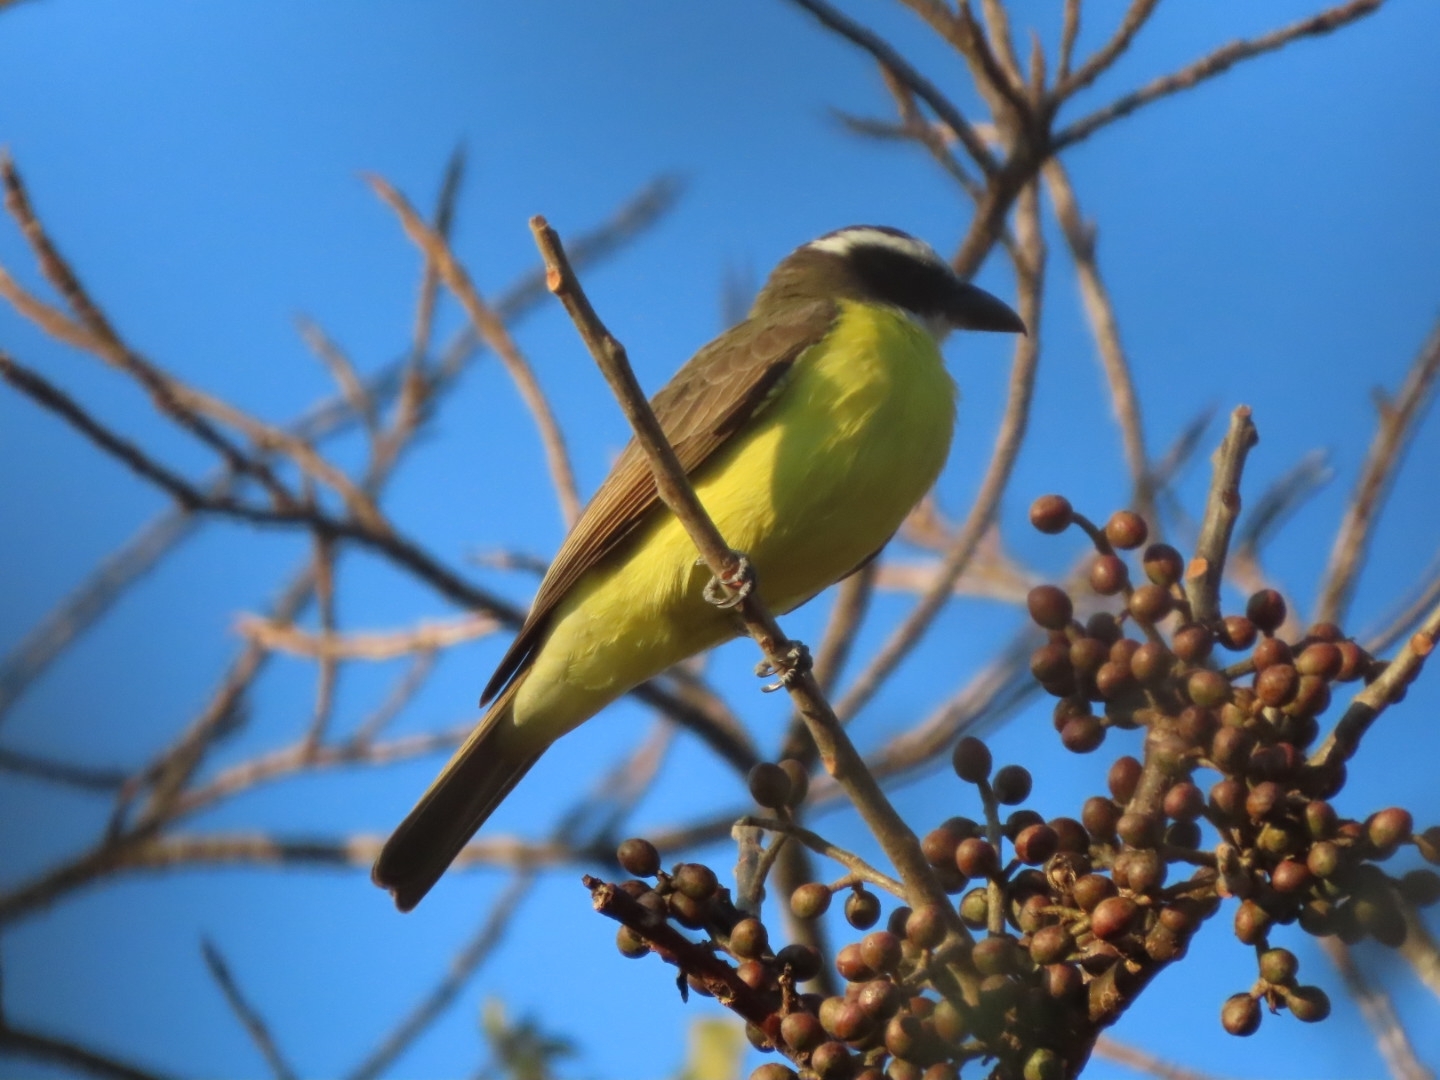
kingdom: Animalia
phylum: Chordata
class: Aves
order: Passeriformes
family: Tyrannidae
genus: Megarynchus
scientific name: Megarynchus pitangua
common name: Boat-billed flycatcher
